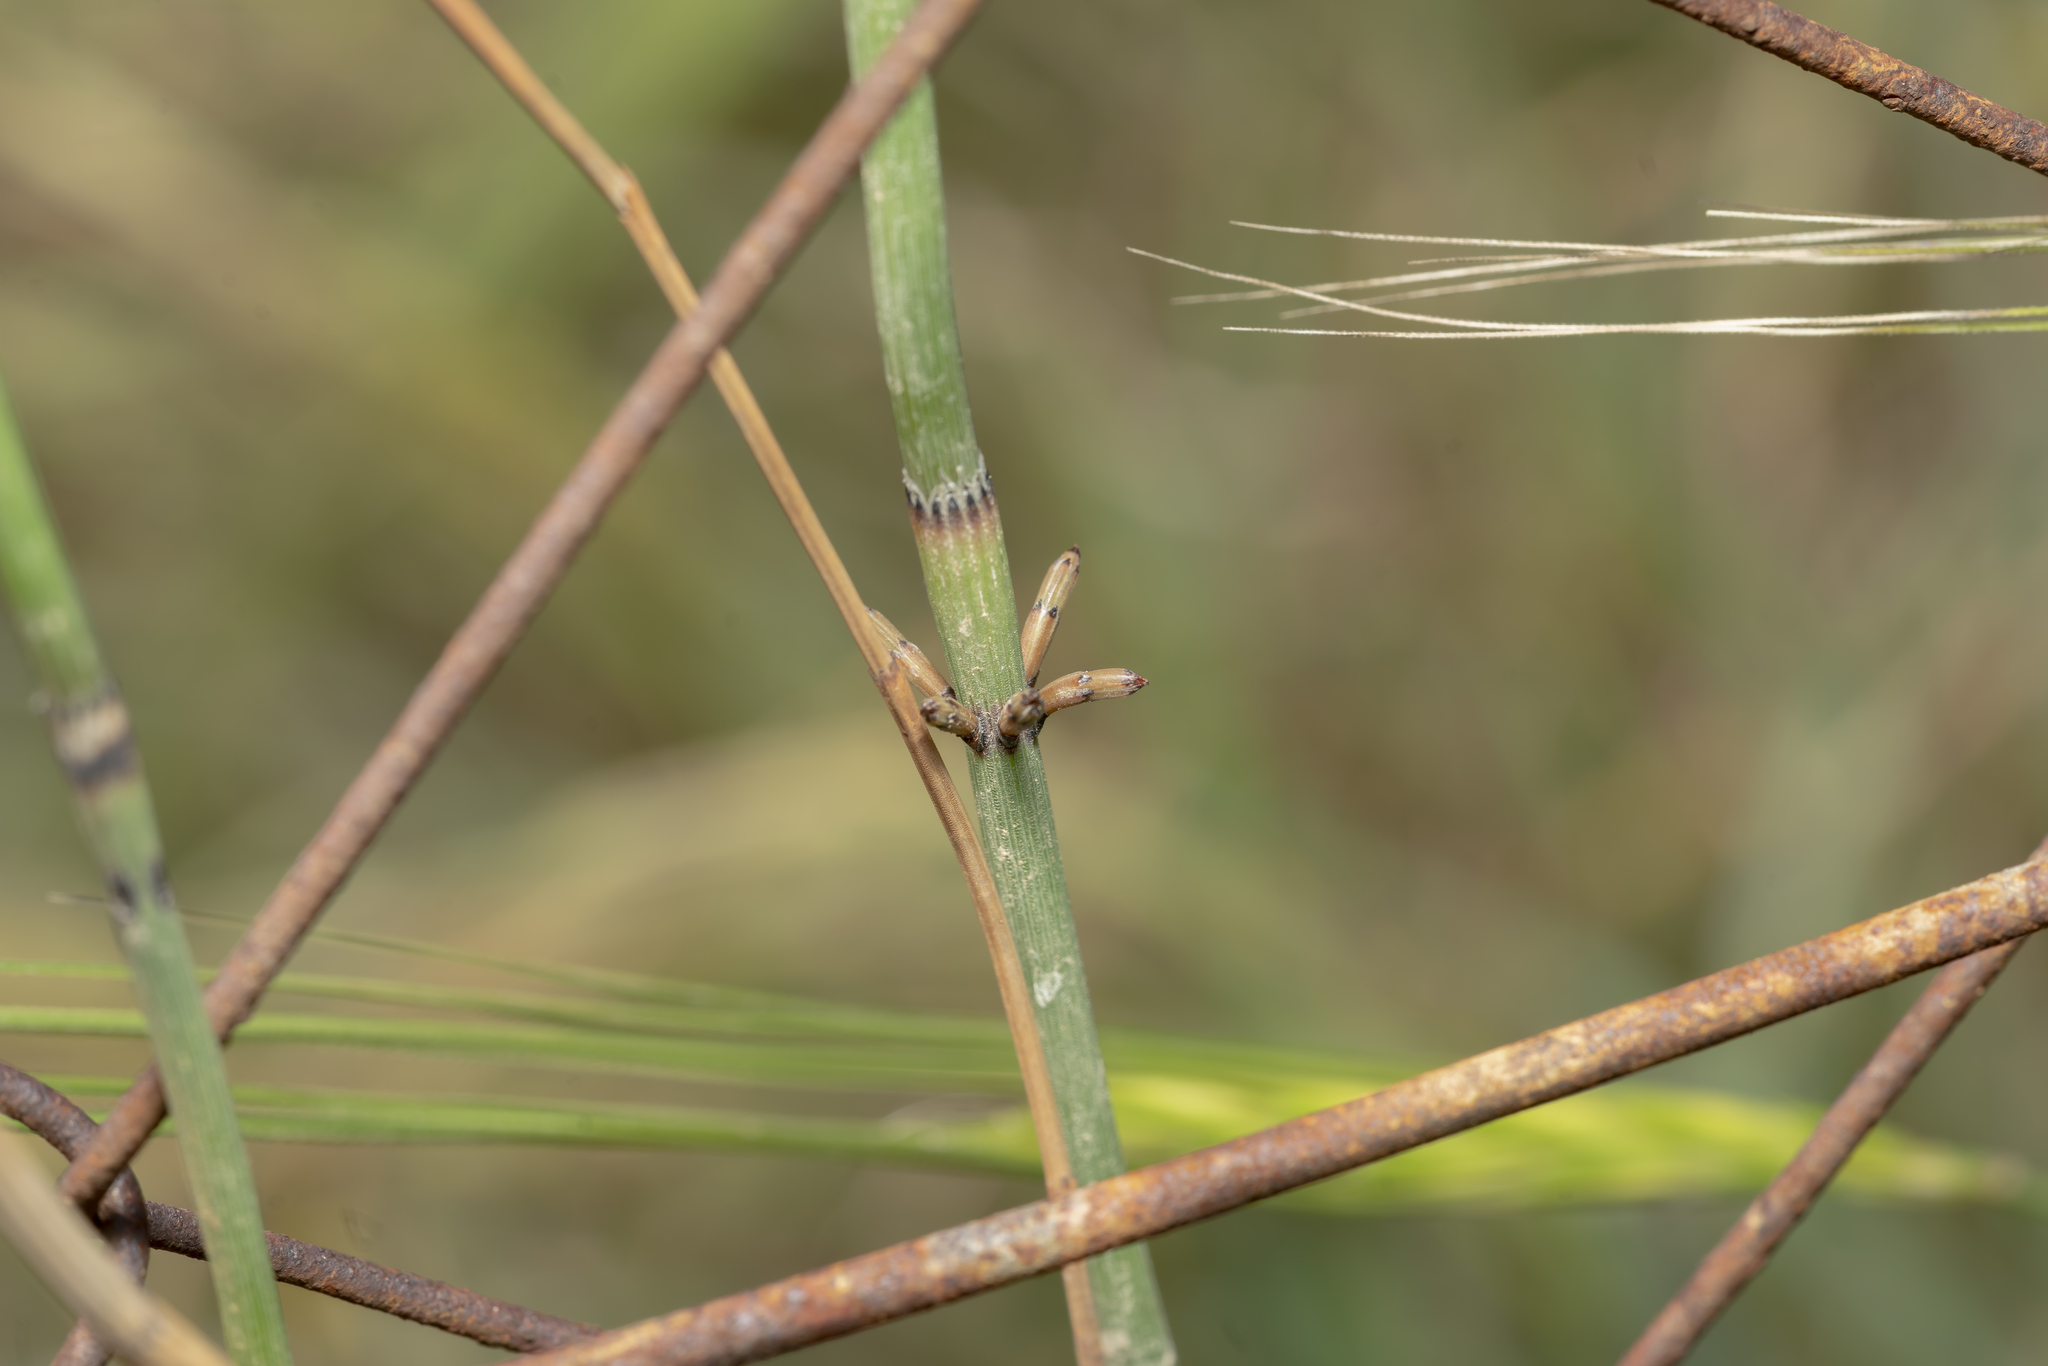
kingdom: Plantae
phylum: Tracheophyta
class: Polypodiopsida
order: Equisetales
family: Equisetaceae
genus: Equisetum
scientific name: Equisetum ramosissimum
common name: Branched horsetail
